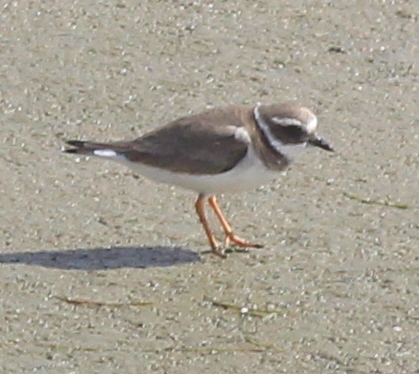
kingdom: Animalia
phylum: Chordata
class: Aves
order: Charadriiformes
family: Charadriidae
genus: Charadrius
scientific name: Charadrius hiaticula
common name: Common ringed plover
